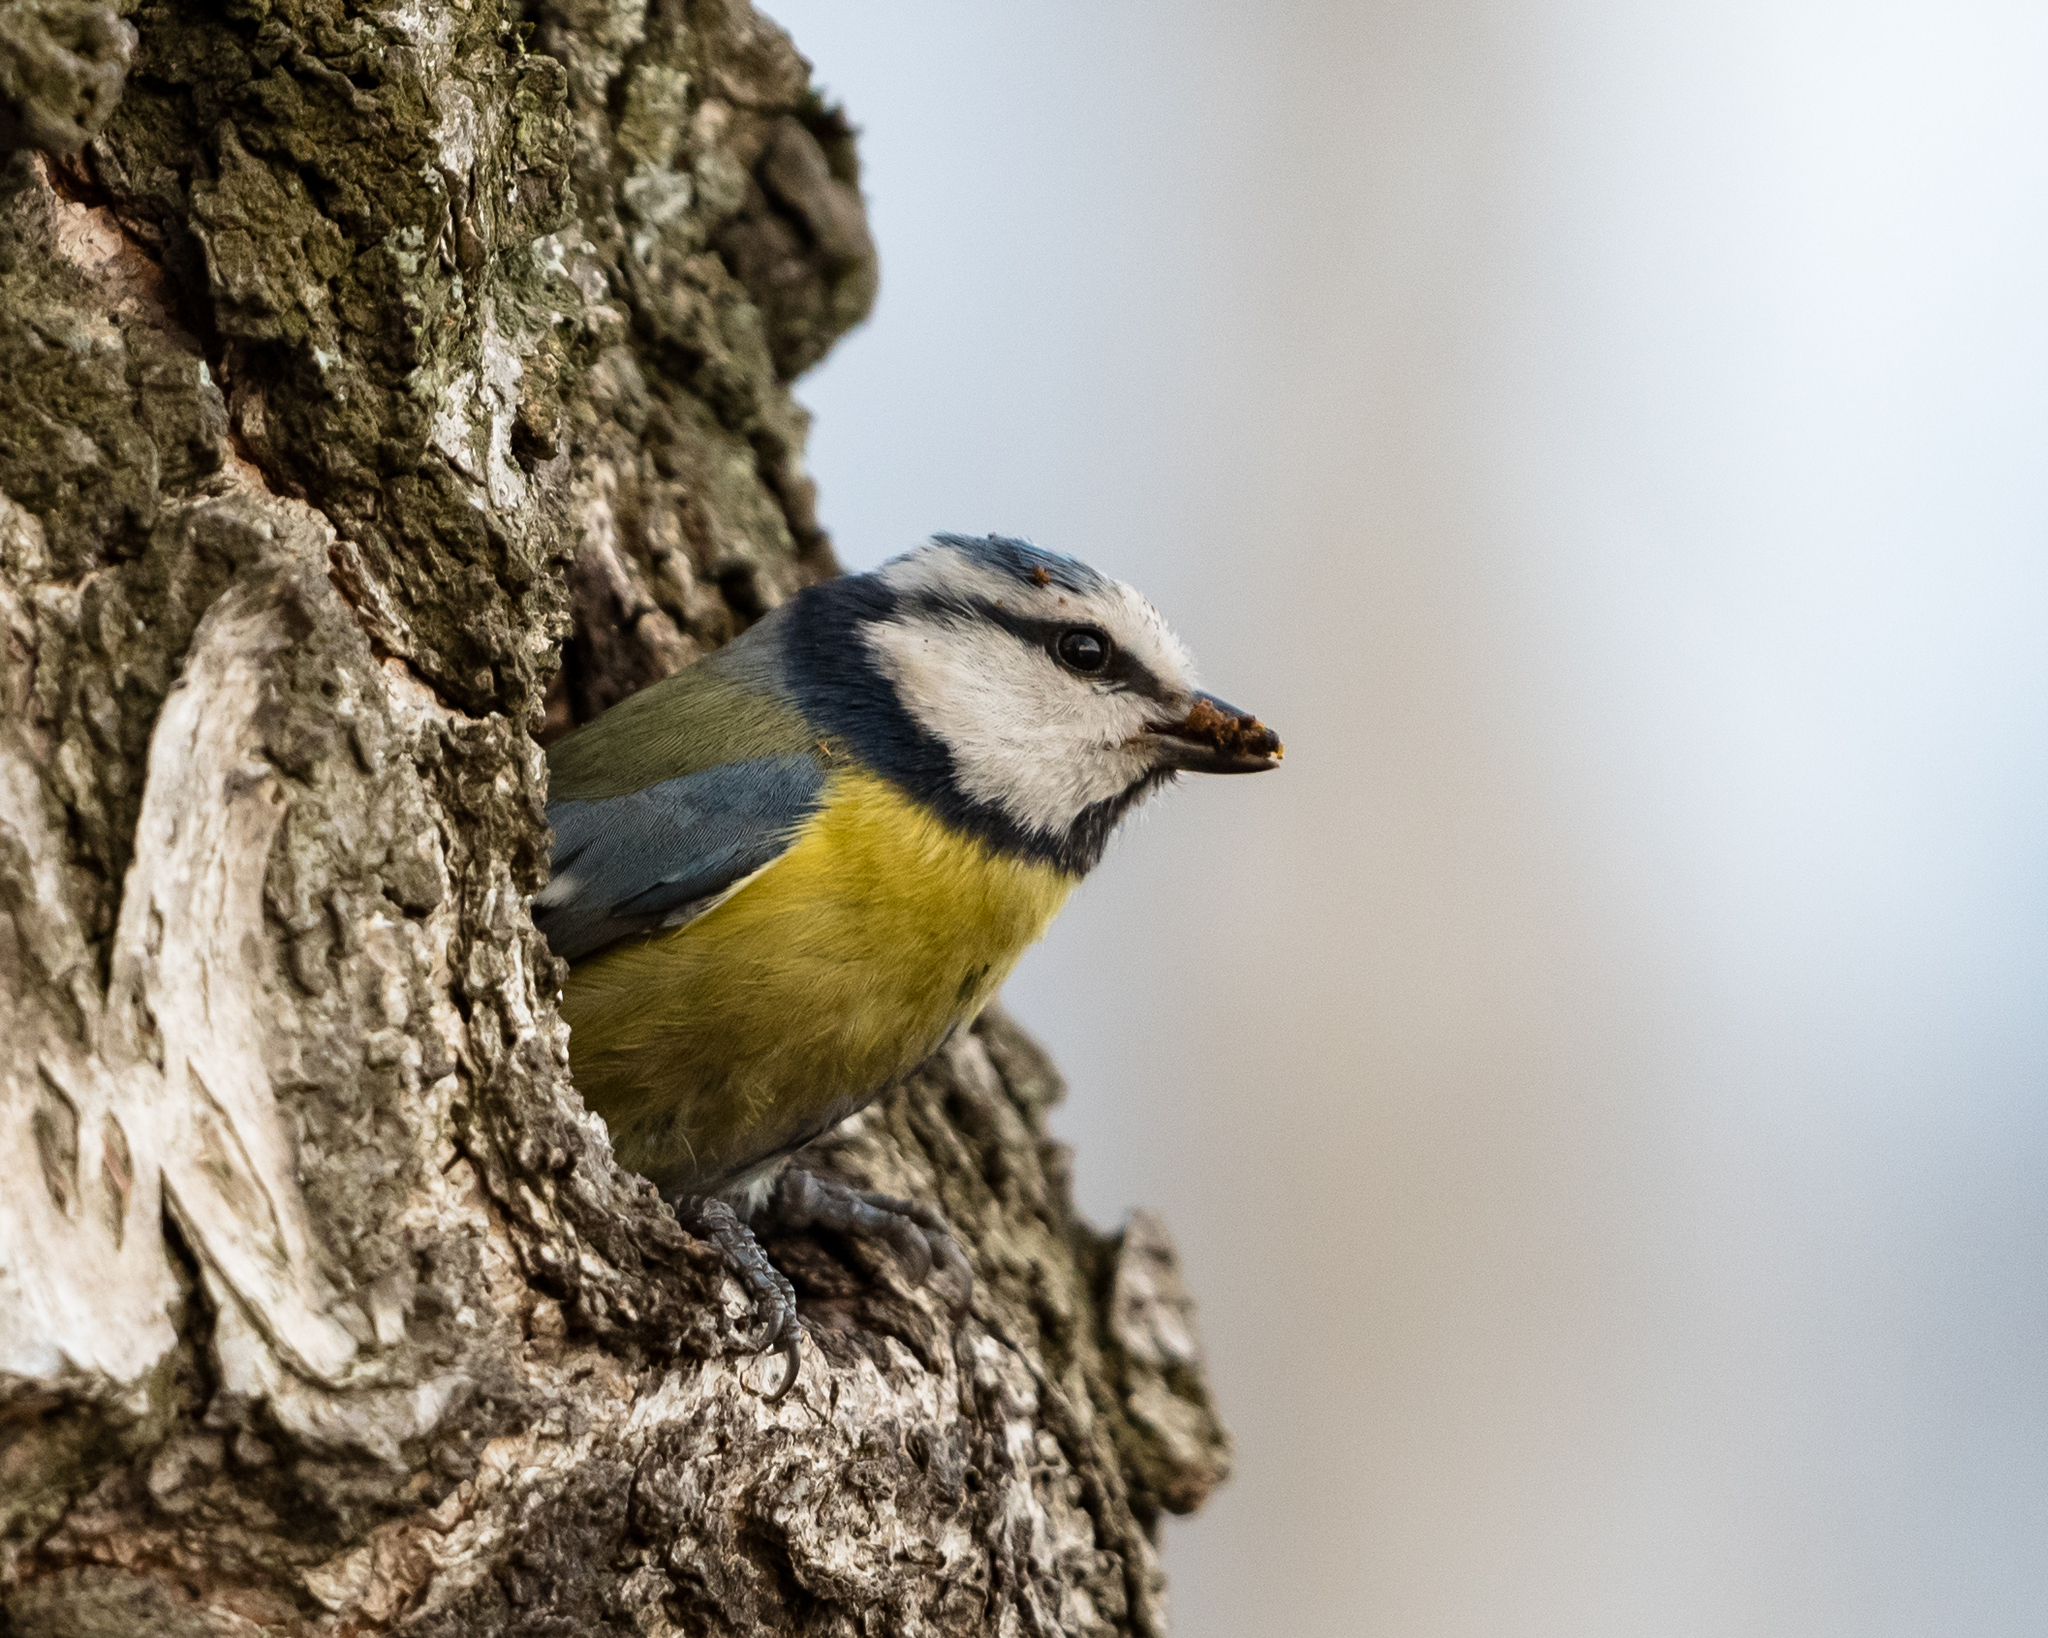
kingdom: Animalia
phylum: Chordata
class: Aves
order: Passeriformes
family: Paridae
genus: Cyanistes
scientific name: Cyanistes caeruleus
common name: Eurasian blue tit
